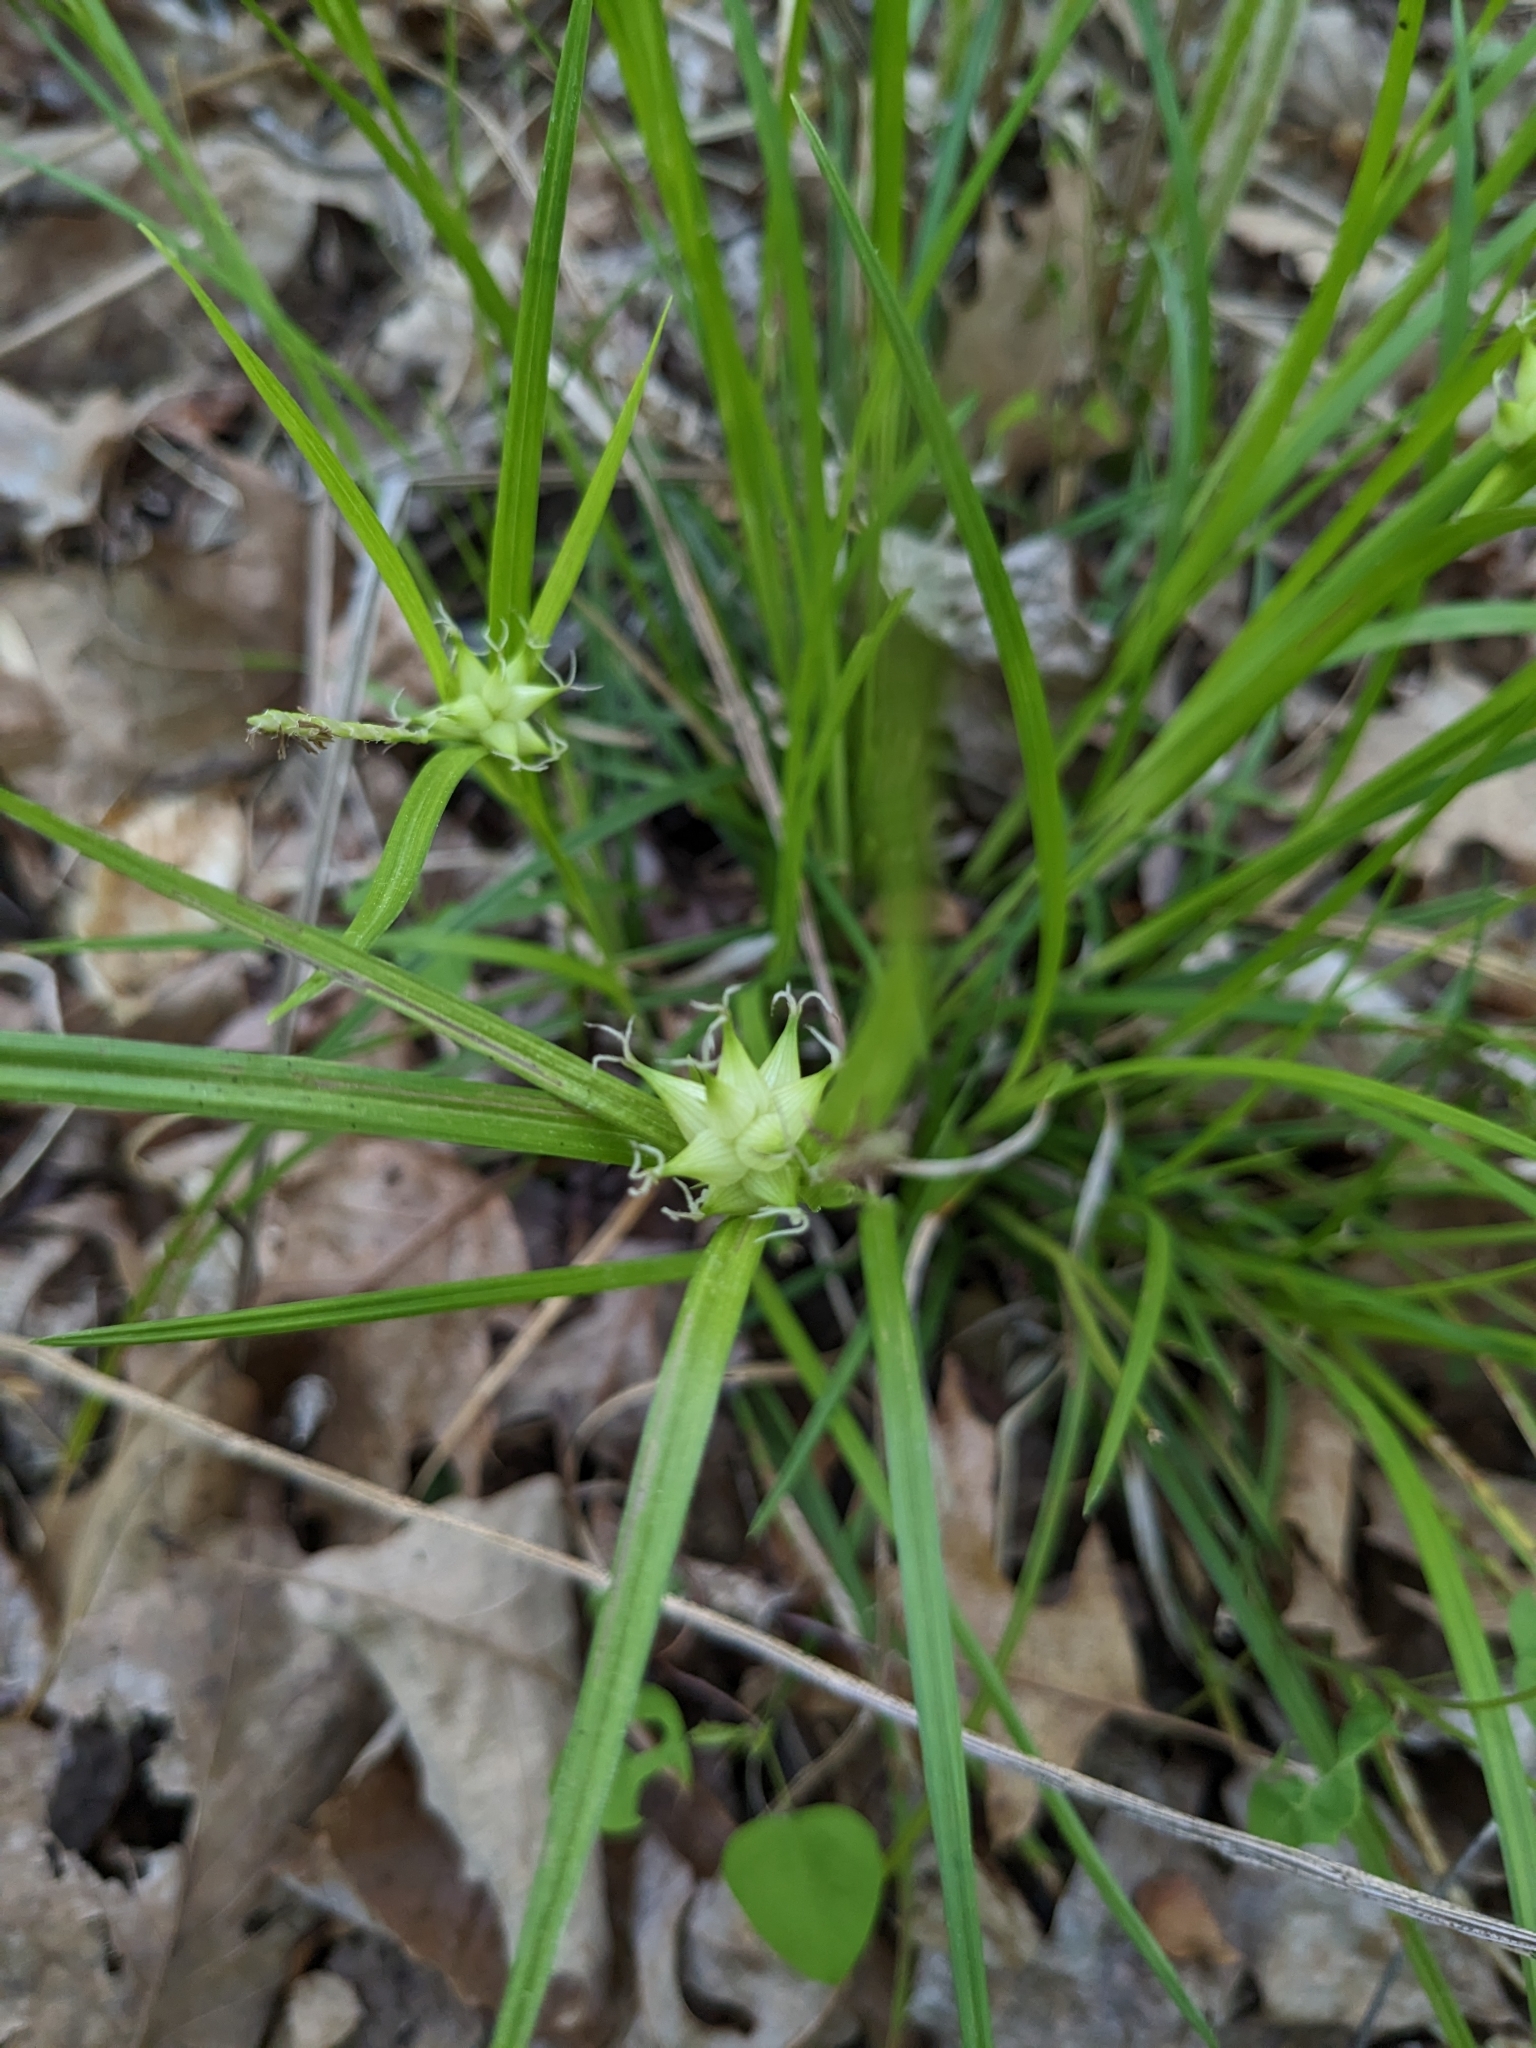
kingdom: Plantae
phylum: Tracheophyta
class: Liliopsida
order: Poales
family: Cyperaceae
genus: Carex
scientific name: Carex intumescens
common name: Greater bladder sedge
